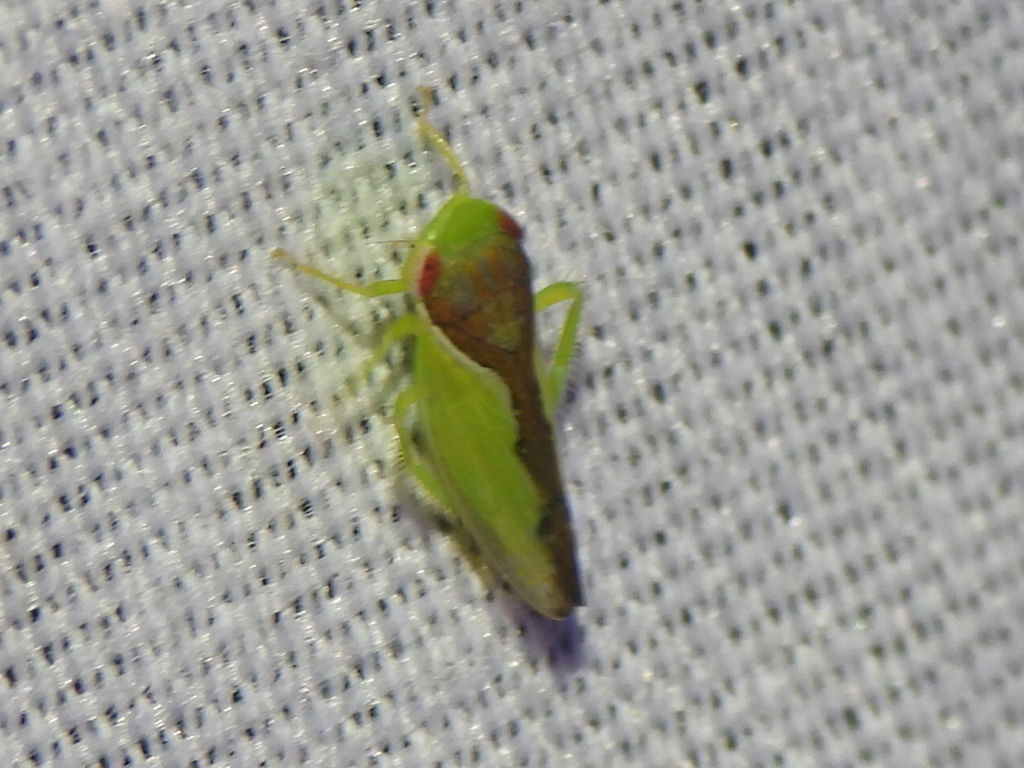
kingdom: Animalia
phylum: Arthropoda
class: Insecta
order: Hemiptera
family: Cicadellidae
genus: Omansobara ing
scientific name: Omansobara ing Omansobara palliolata
